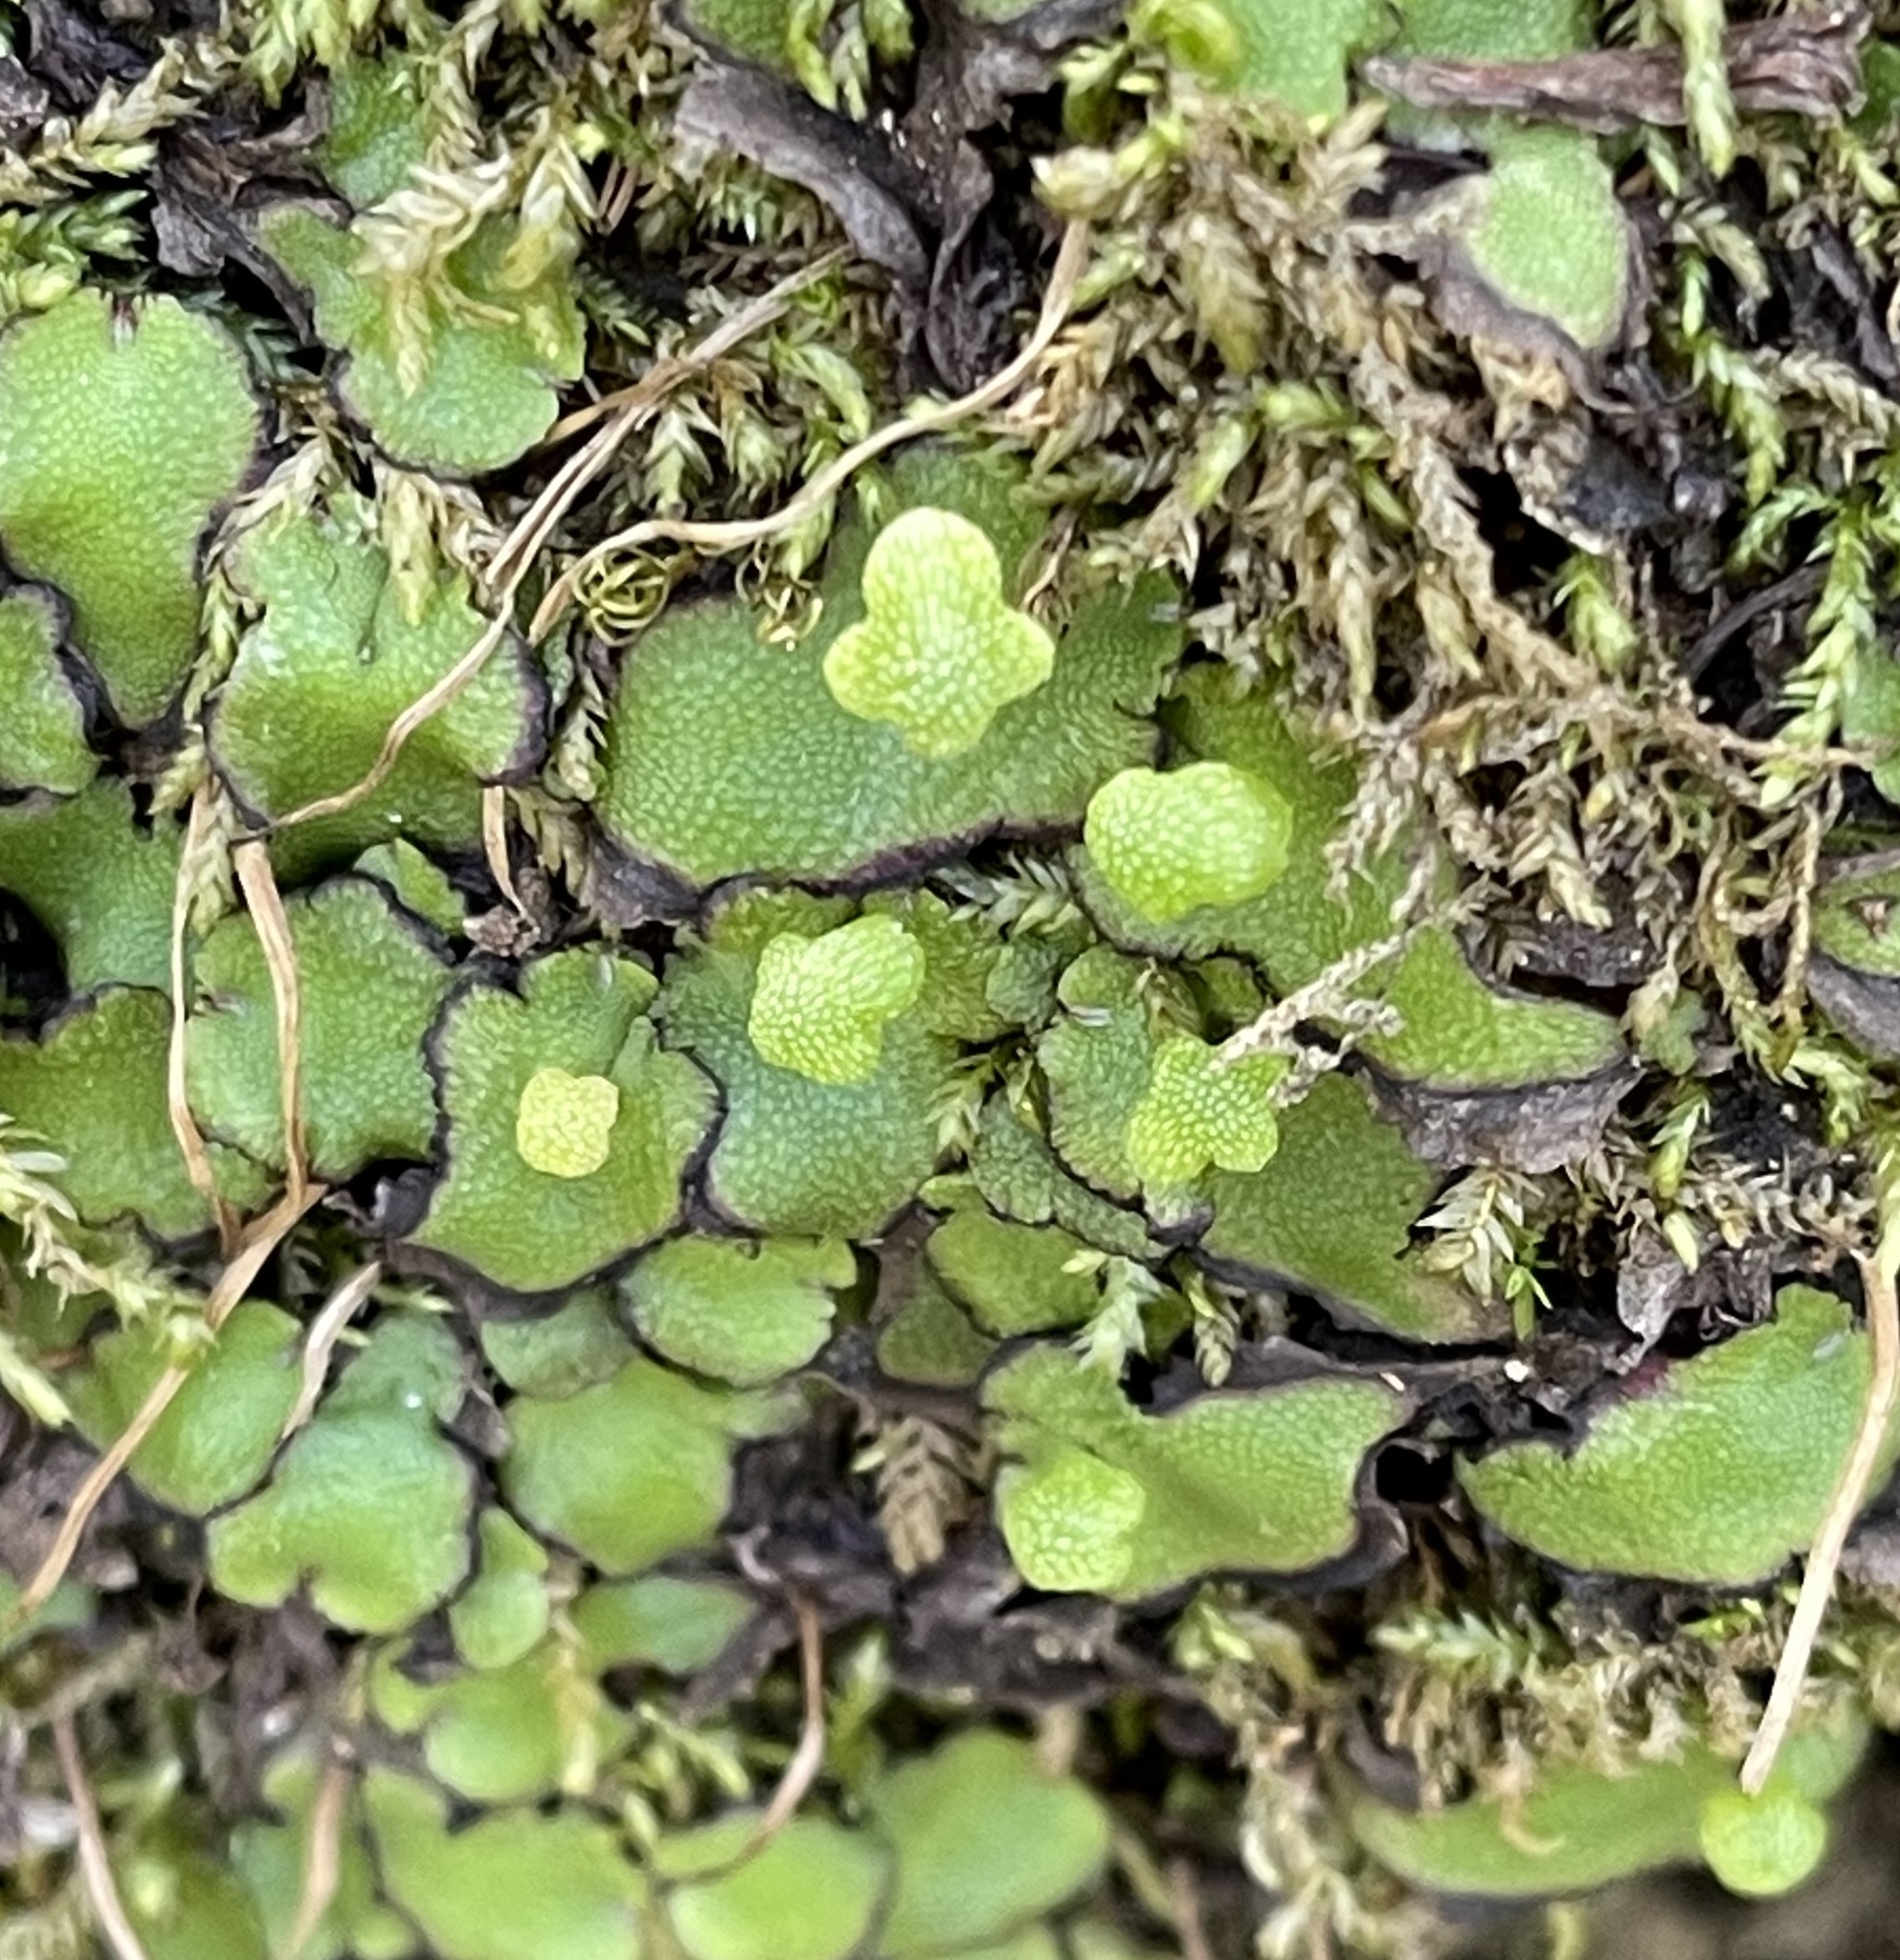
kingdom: Plantae
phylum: Marchantiophyta
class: Marchantiopsida
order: Marchantiales
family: Aytoniaceae
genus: Asterella
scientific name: Asterella californica
